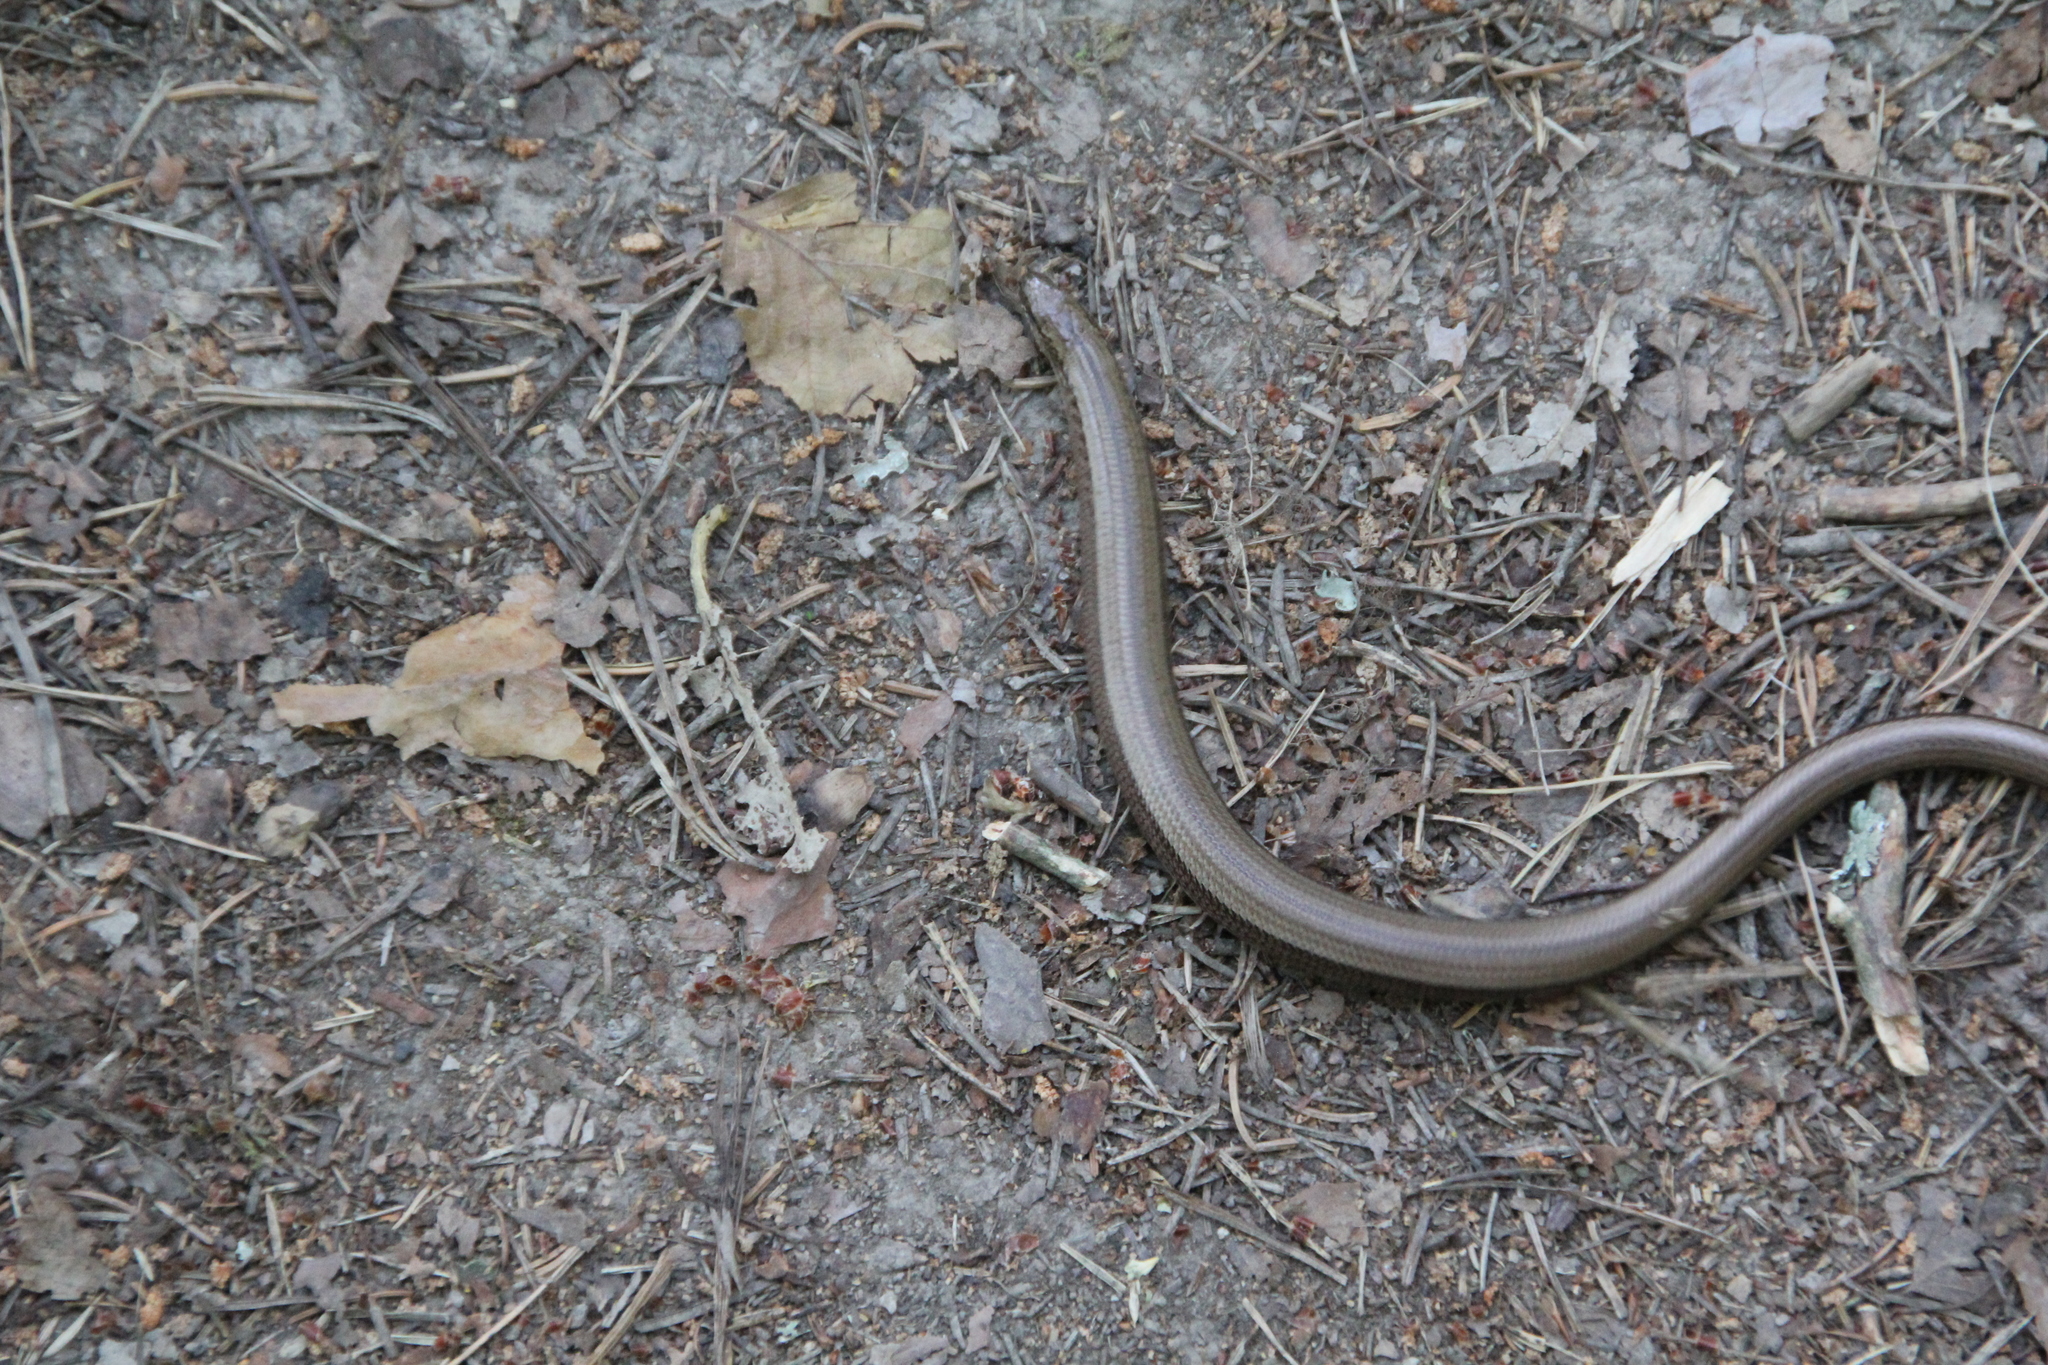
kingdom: Animalia
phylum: Chordata
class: Squamata
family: Anguidae
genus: Anguis
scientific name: Anguis fragilis
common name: Slow worm
